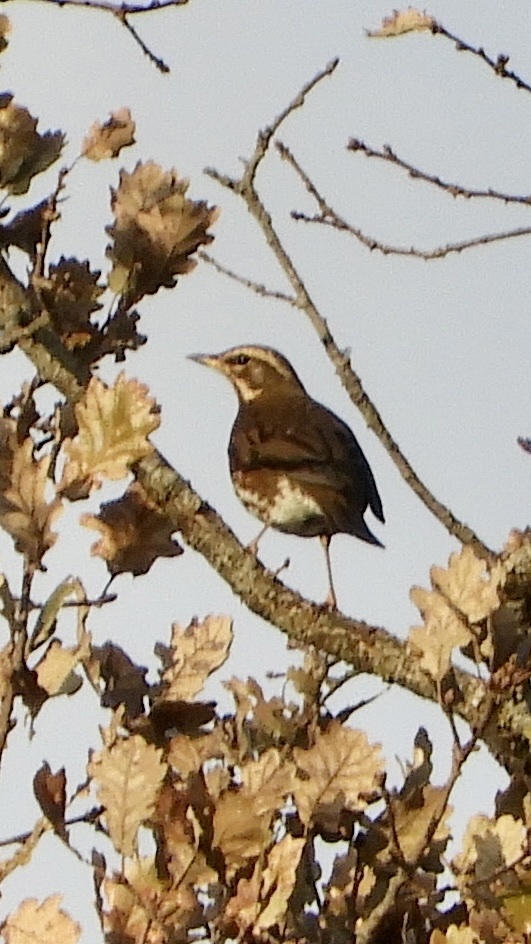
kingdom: Animalia
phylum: Chordata
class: Aves
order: Passeriformes
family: Turdidae
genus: Turdus
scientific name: Turdus iliacus
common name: Redwing
